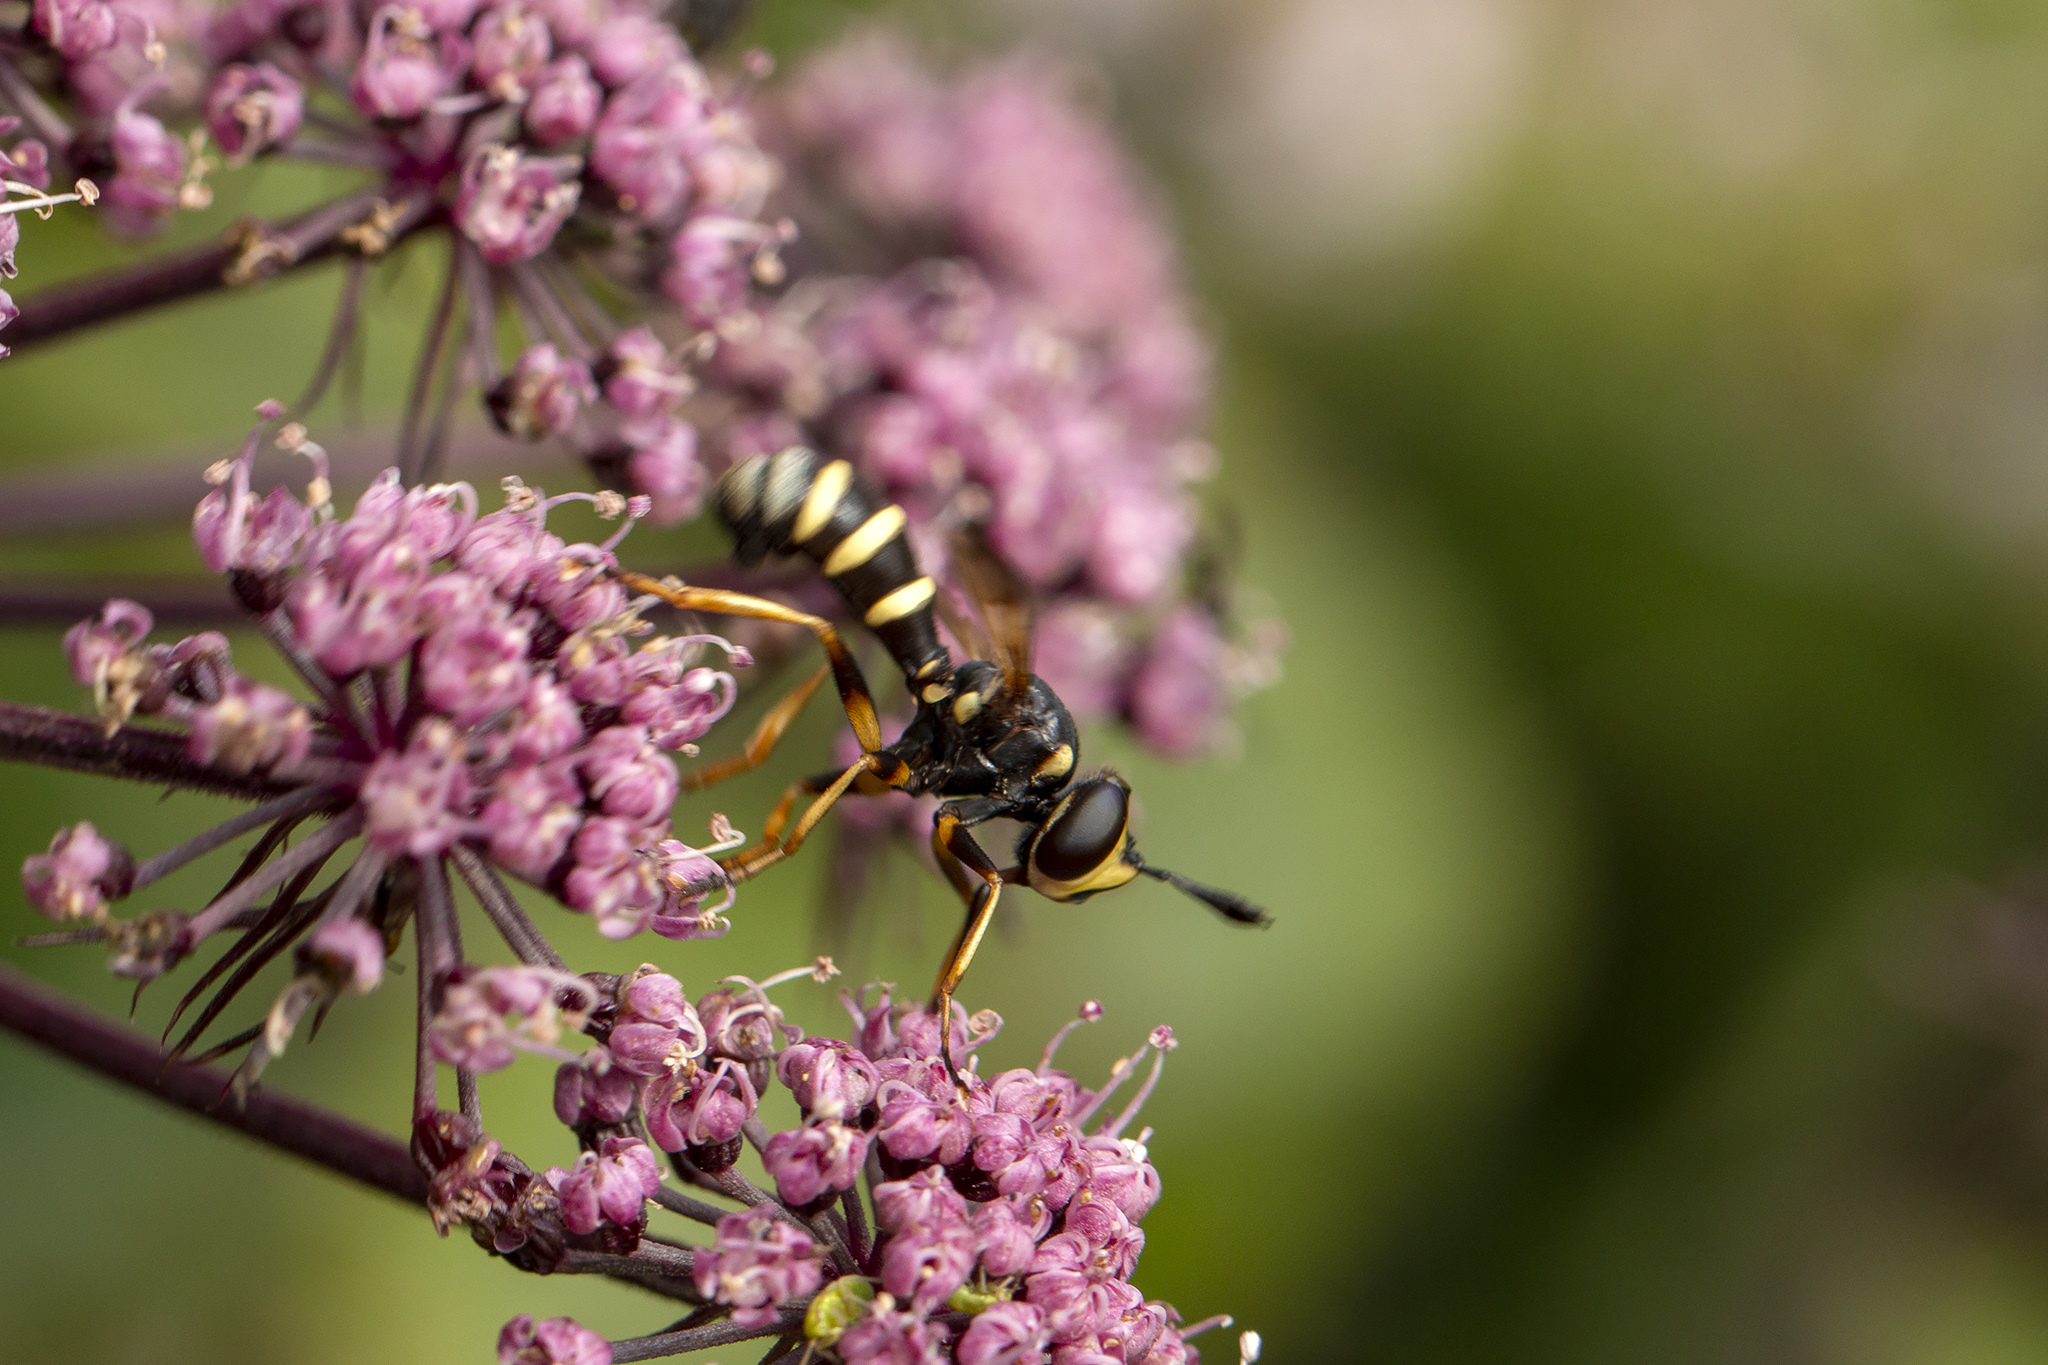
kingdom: Animalia
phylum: Arthropoda
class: Insecta
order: Diptera
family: Conopidae
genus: Conops
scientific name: Conops flavipes
